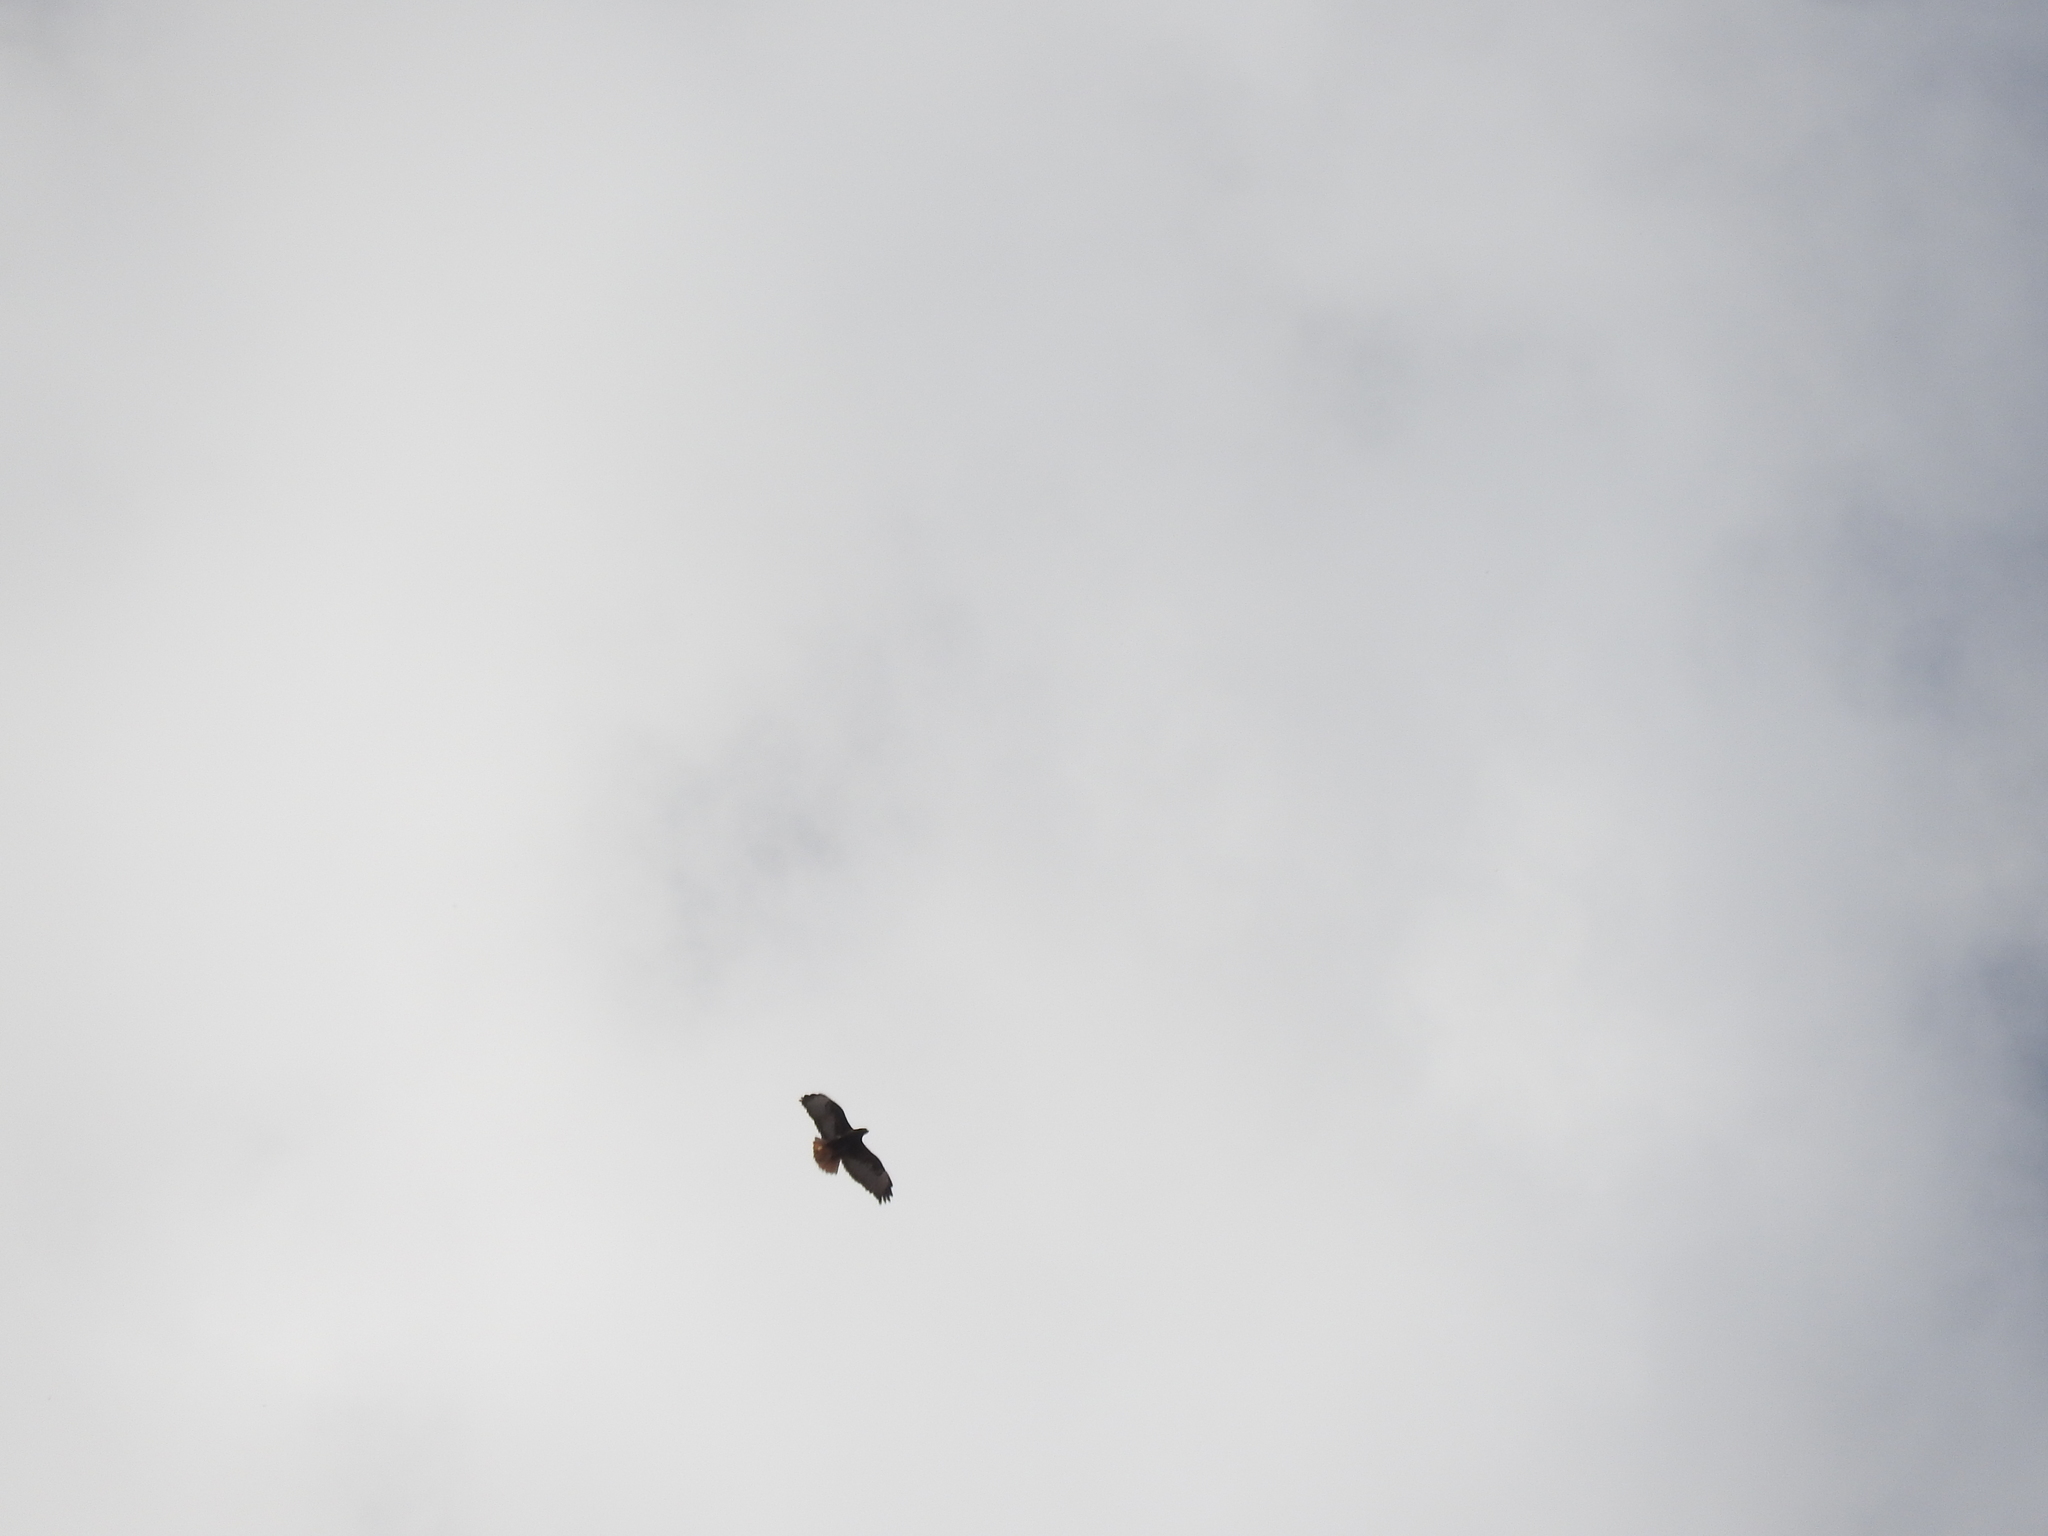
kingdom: Animalia
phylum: Chordata
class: Aves
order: Accipitriformes
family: Accipitridae
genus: Buteo
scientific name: Buteo jamaicensis
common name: Red-tailed hawk
